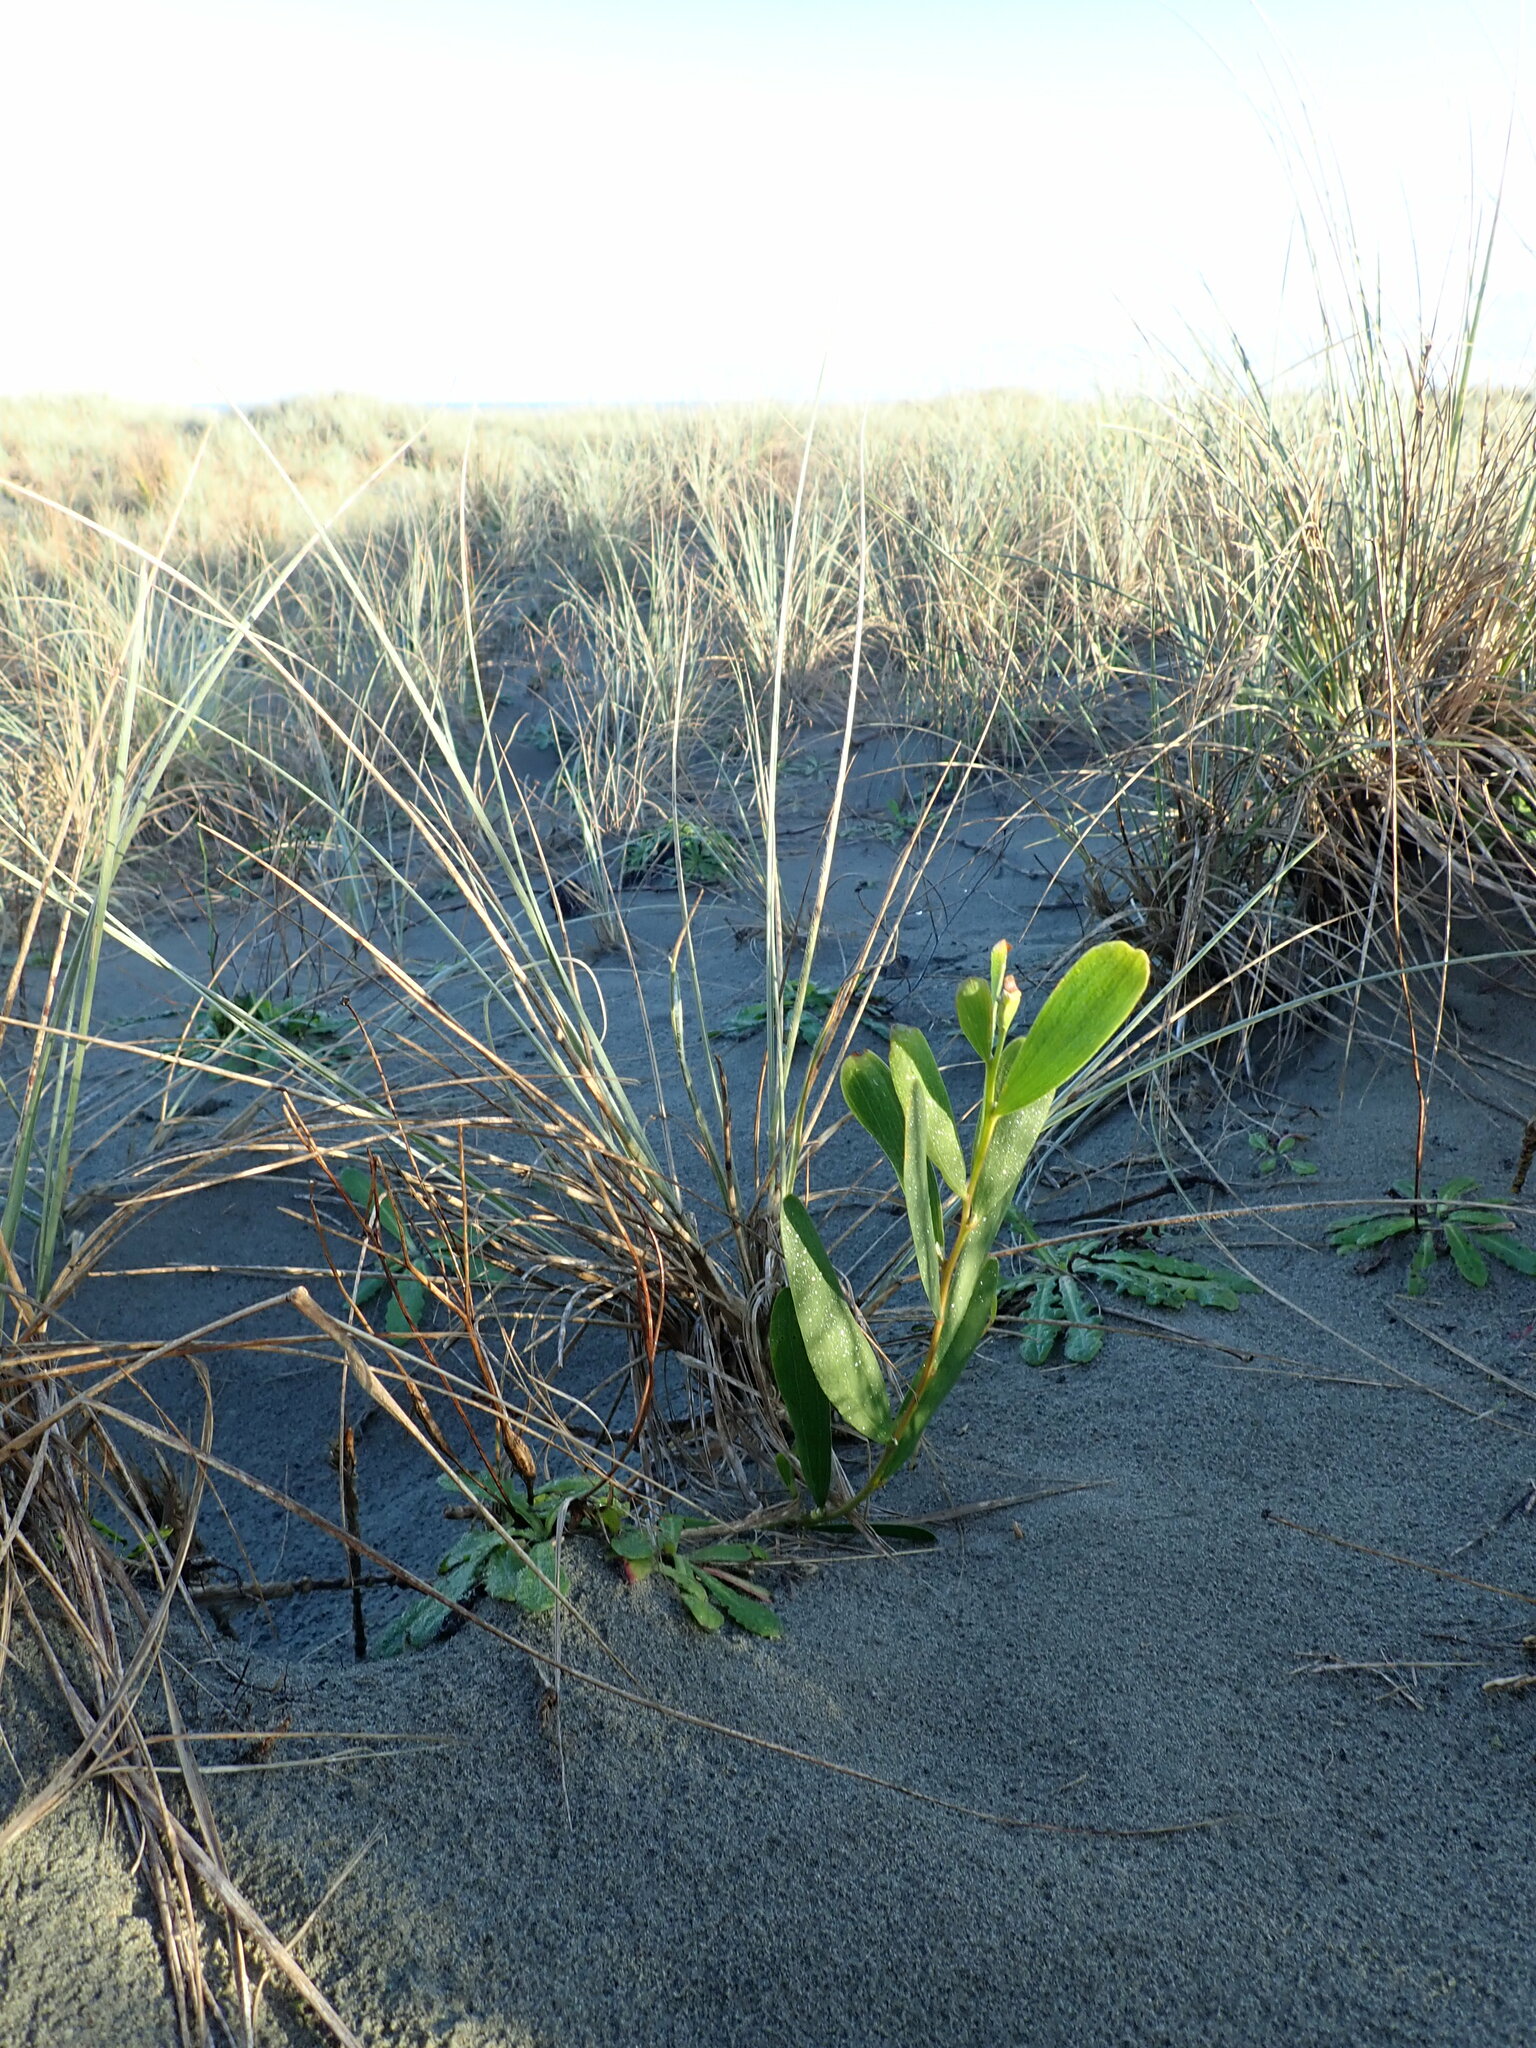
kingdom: Plantae
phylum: Tracheophyta
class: Magnoliopsida
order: Fabales
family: Fabaceae
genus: Acacia
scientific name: Acacia longifolia
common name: Sydney golden wattle
